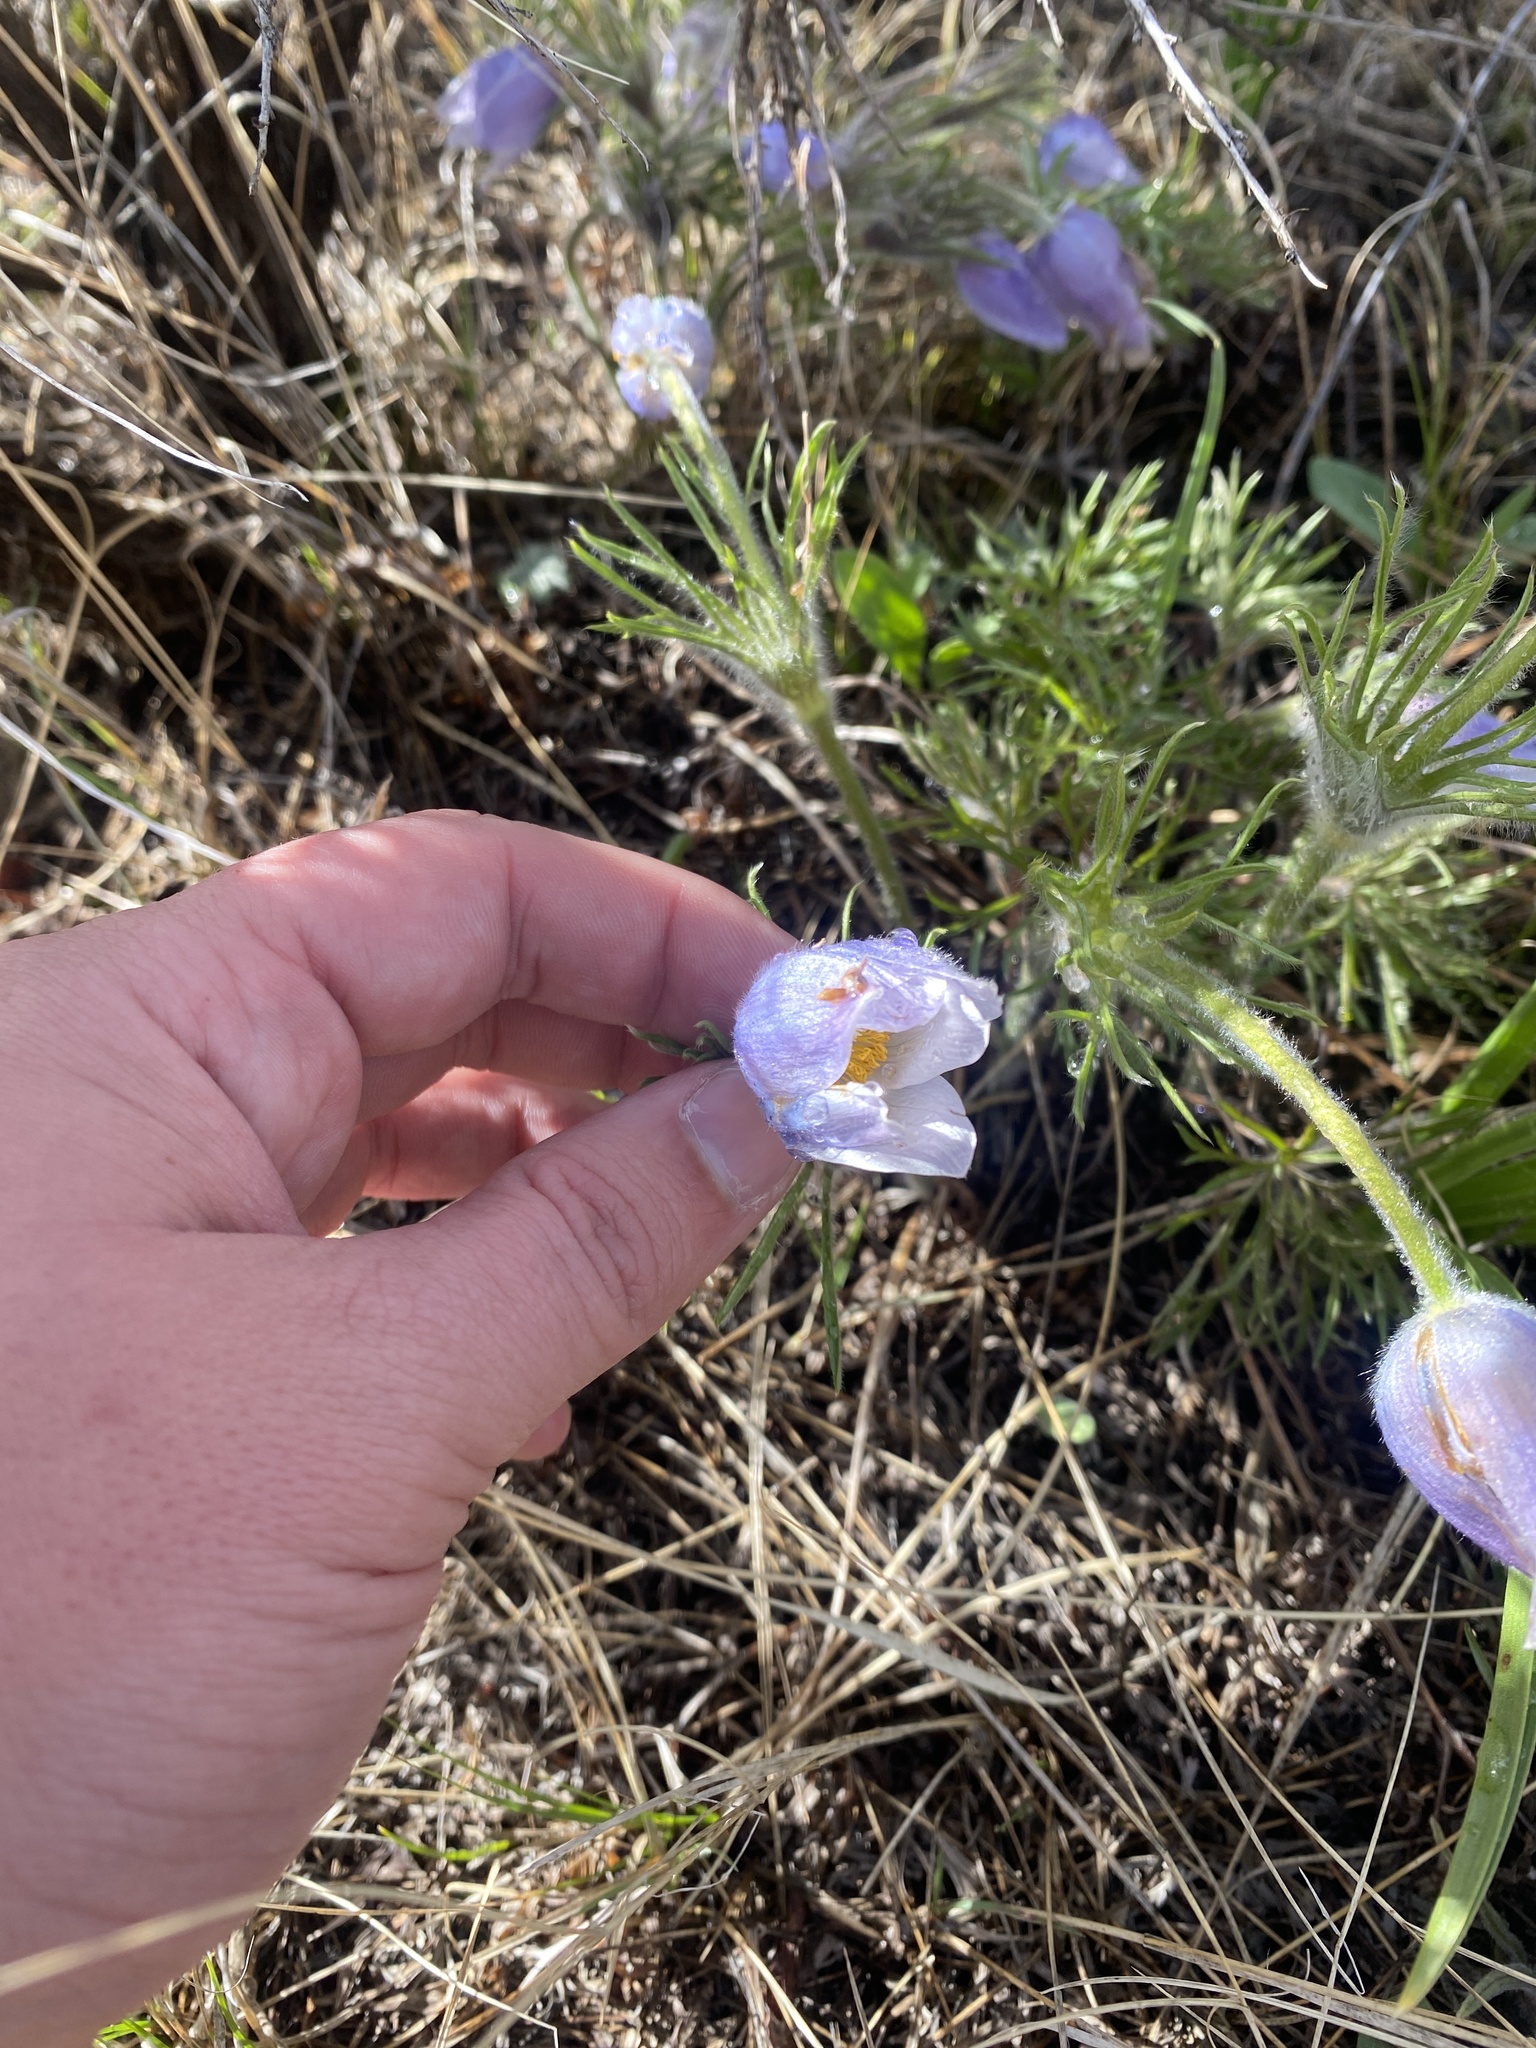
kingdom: Plantae
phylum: Tracheophyta
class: Magnoliopsida
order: Ranunculales
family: Ranunculaceae
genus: Pulsatilla
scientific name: Pulsatilla nuttalliana
